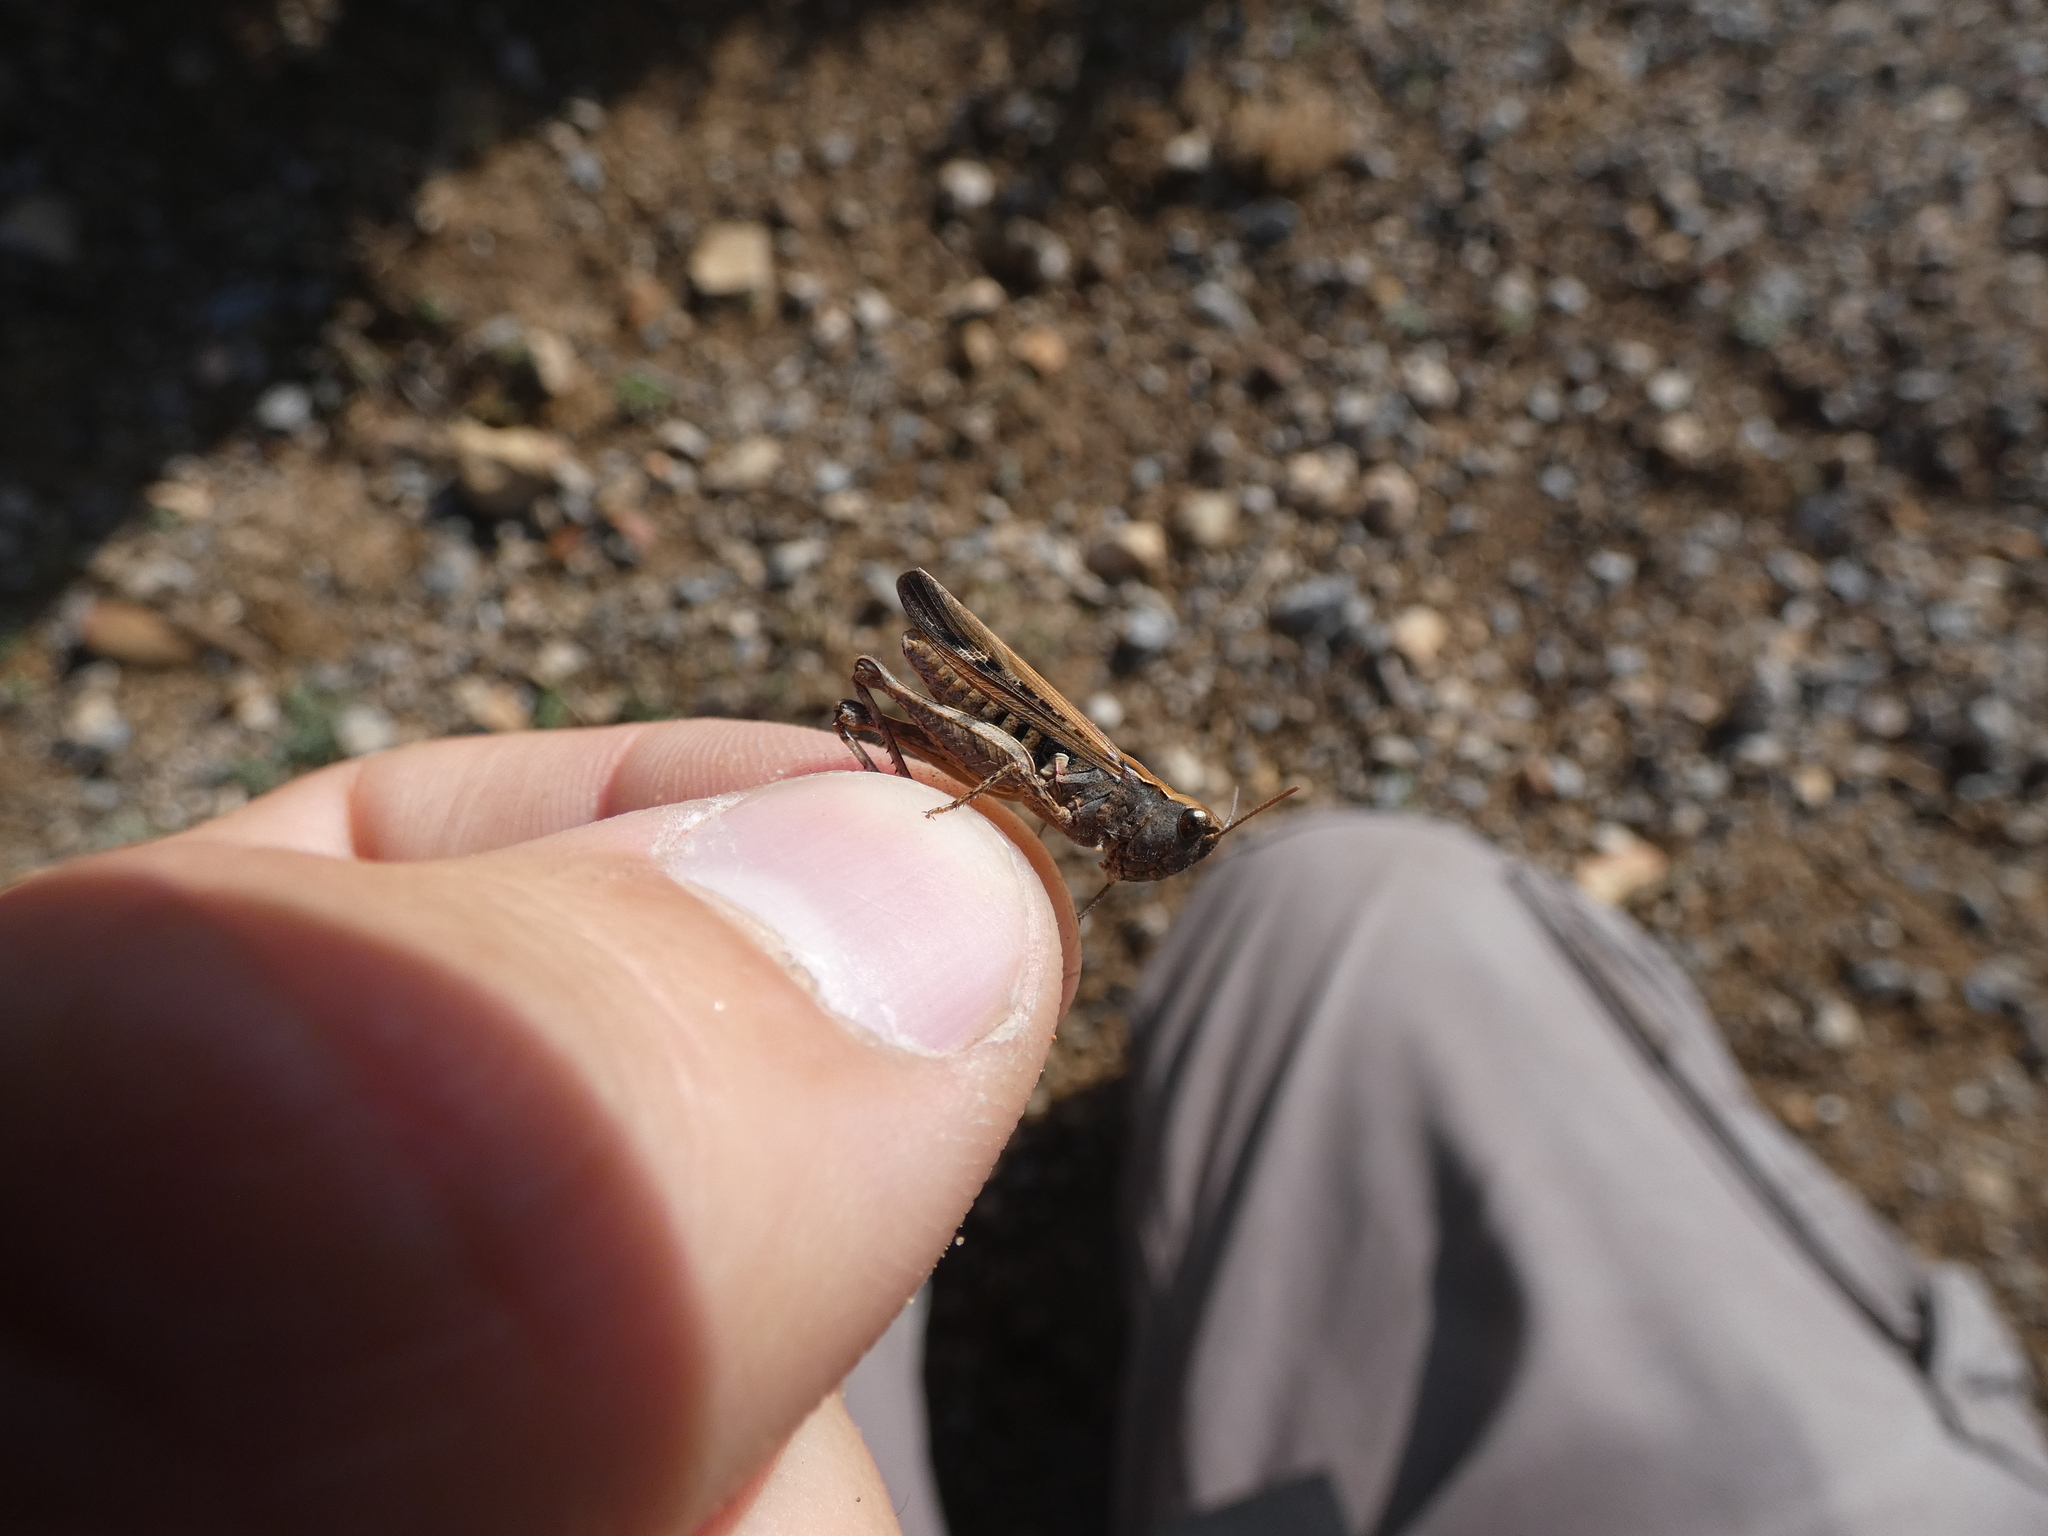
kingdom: Animalia
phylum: Arthropoda
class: Insecta
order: Orthoptera
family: Acrididae
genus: Omocestus
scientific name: Omocestus raymondi
